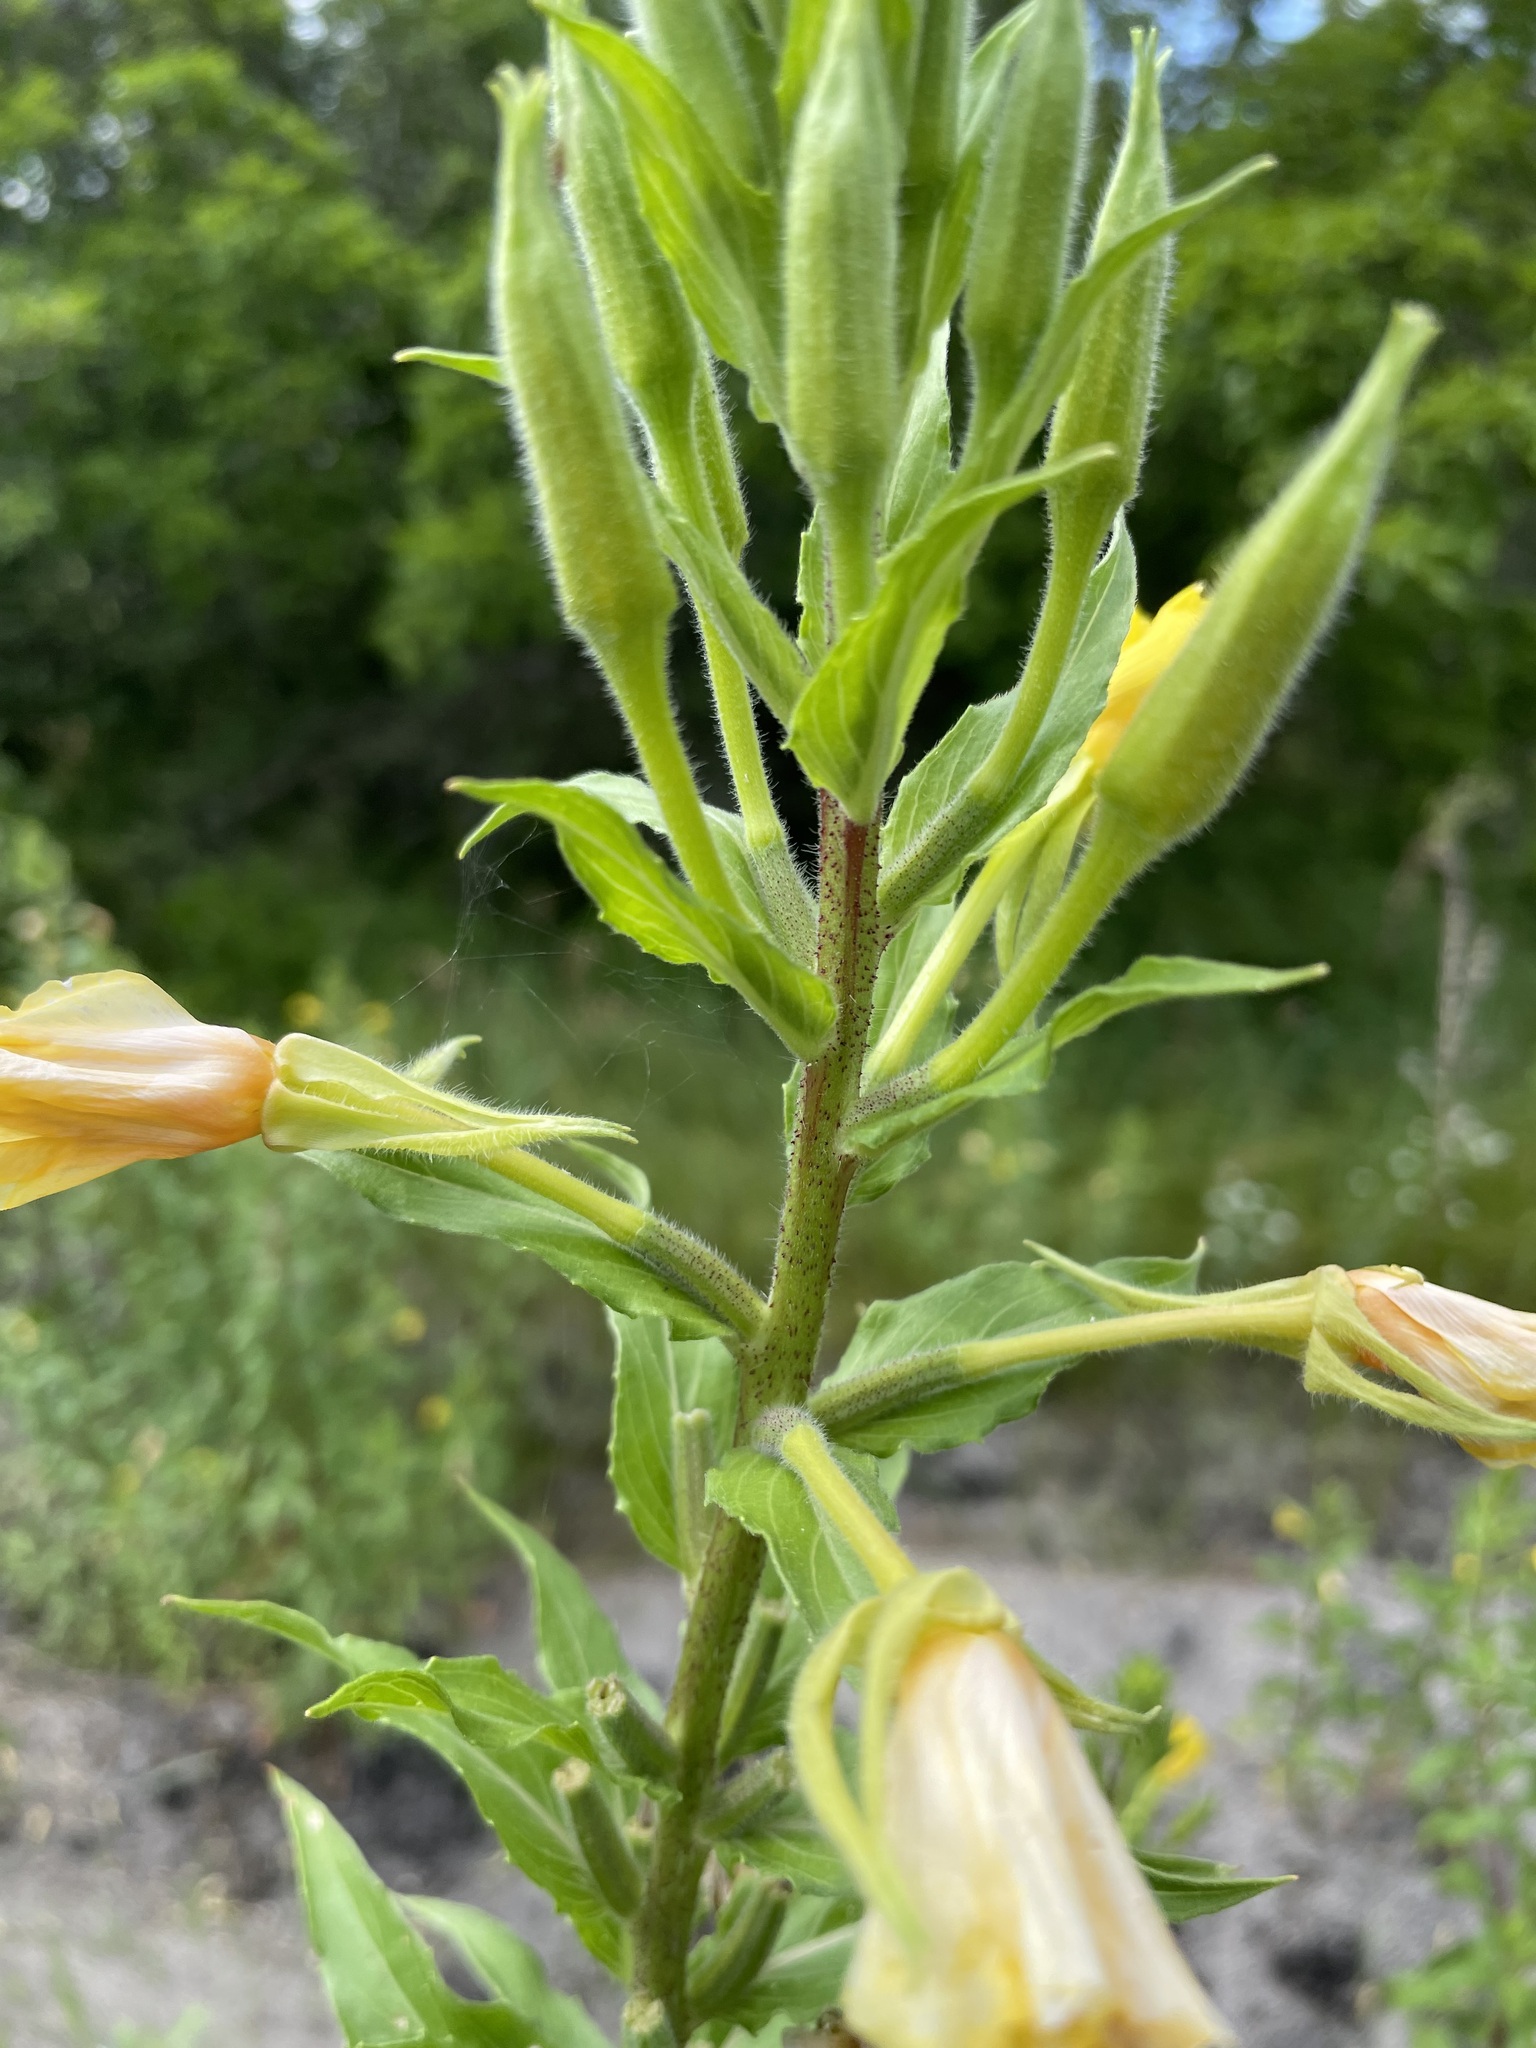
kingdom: Plantae
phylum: Tracheophyta
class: Magnoliopsida
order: Myrtales
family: Onagraceae
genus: Oenothera
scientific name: Oenothera rubricaulis
